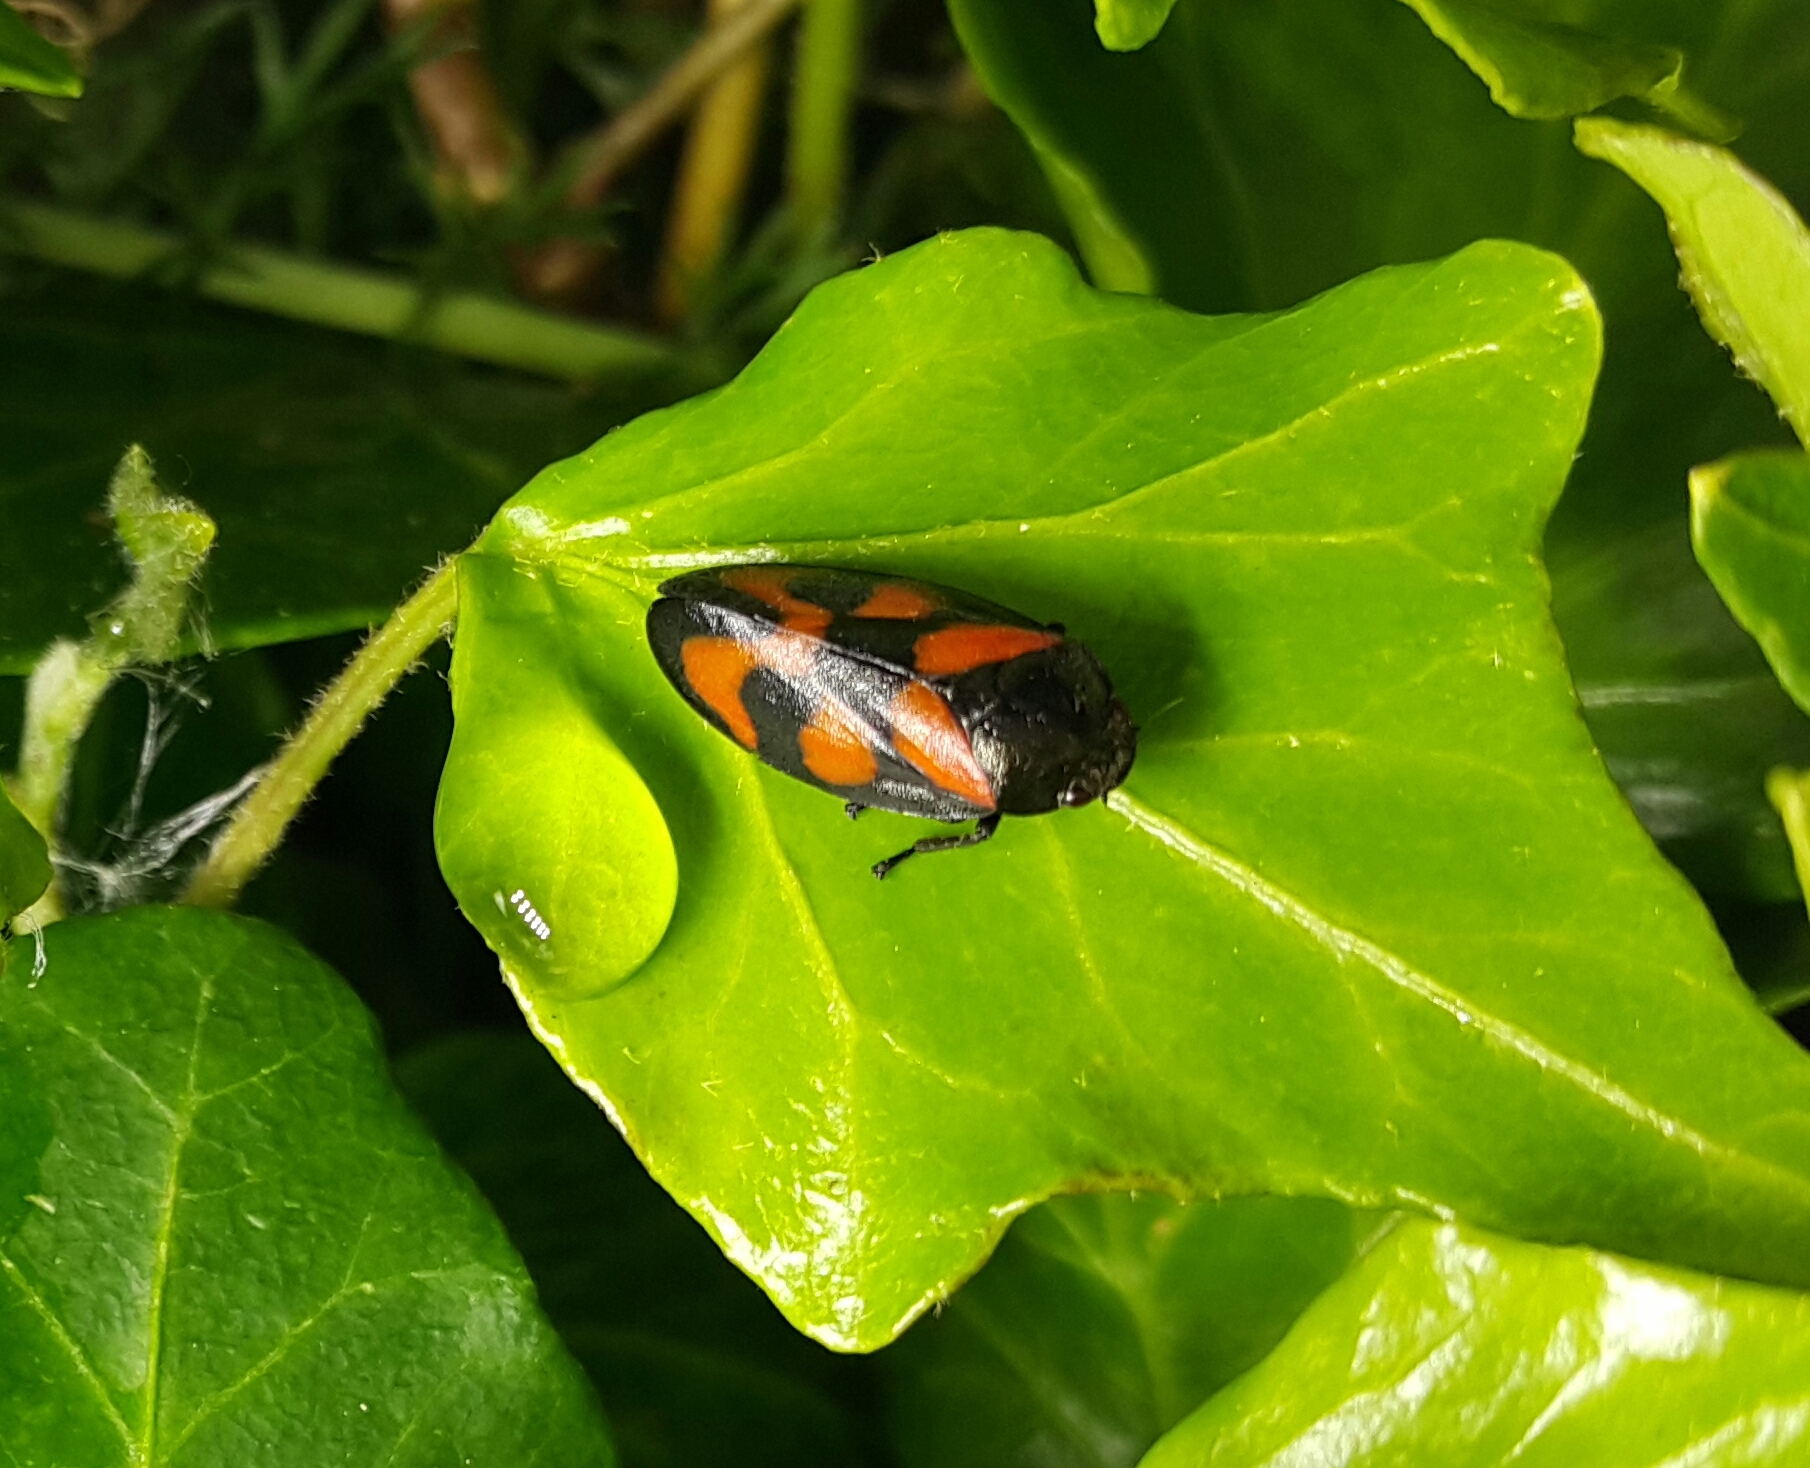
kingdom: Animalia
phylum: Arthropoda
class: Insecta
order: Hemiptera
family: Cercopidae
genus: Cercopis
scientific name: Cercopis vulnerata
